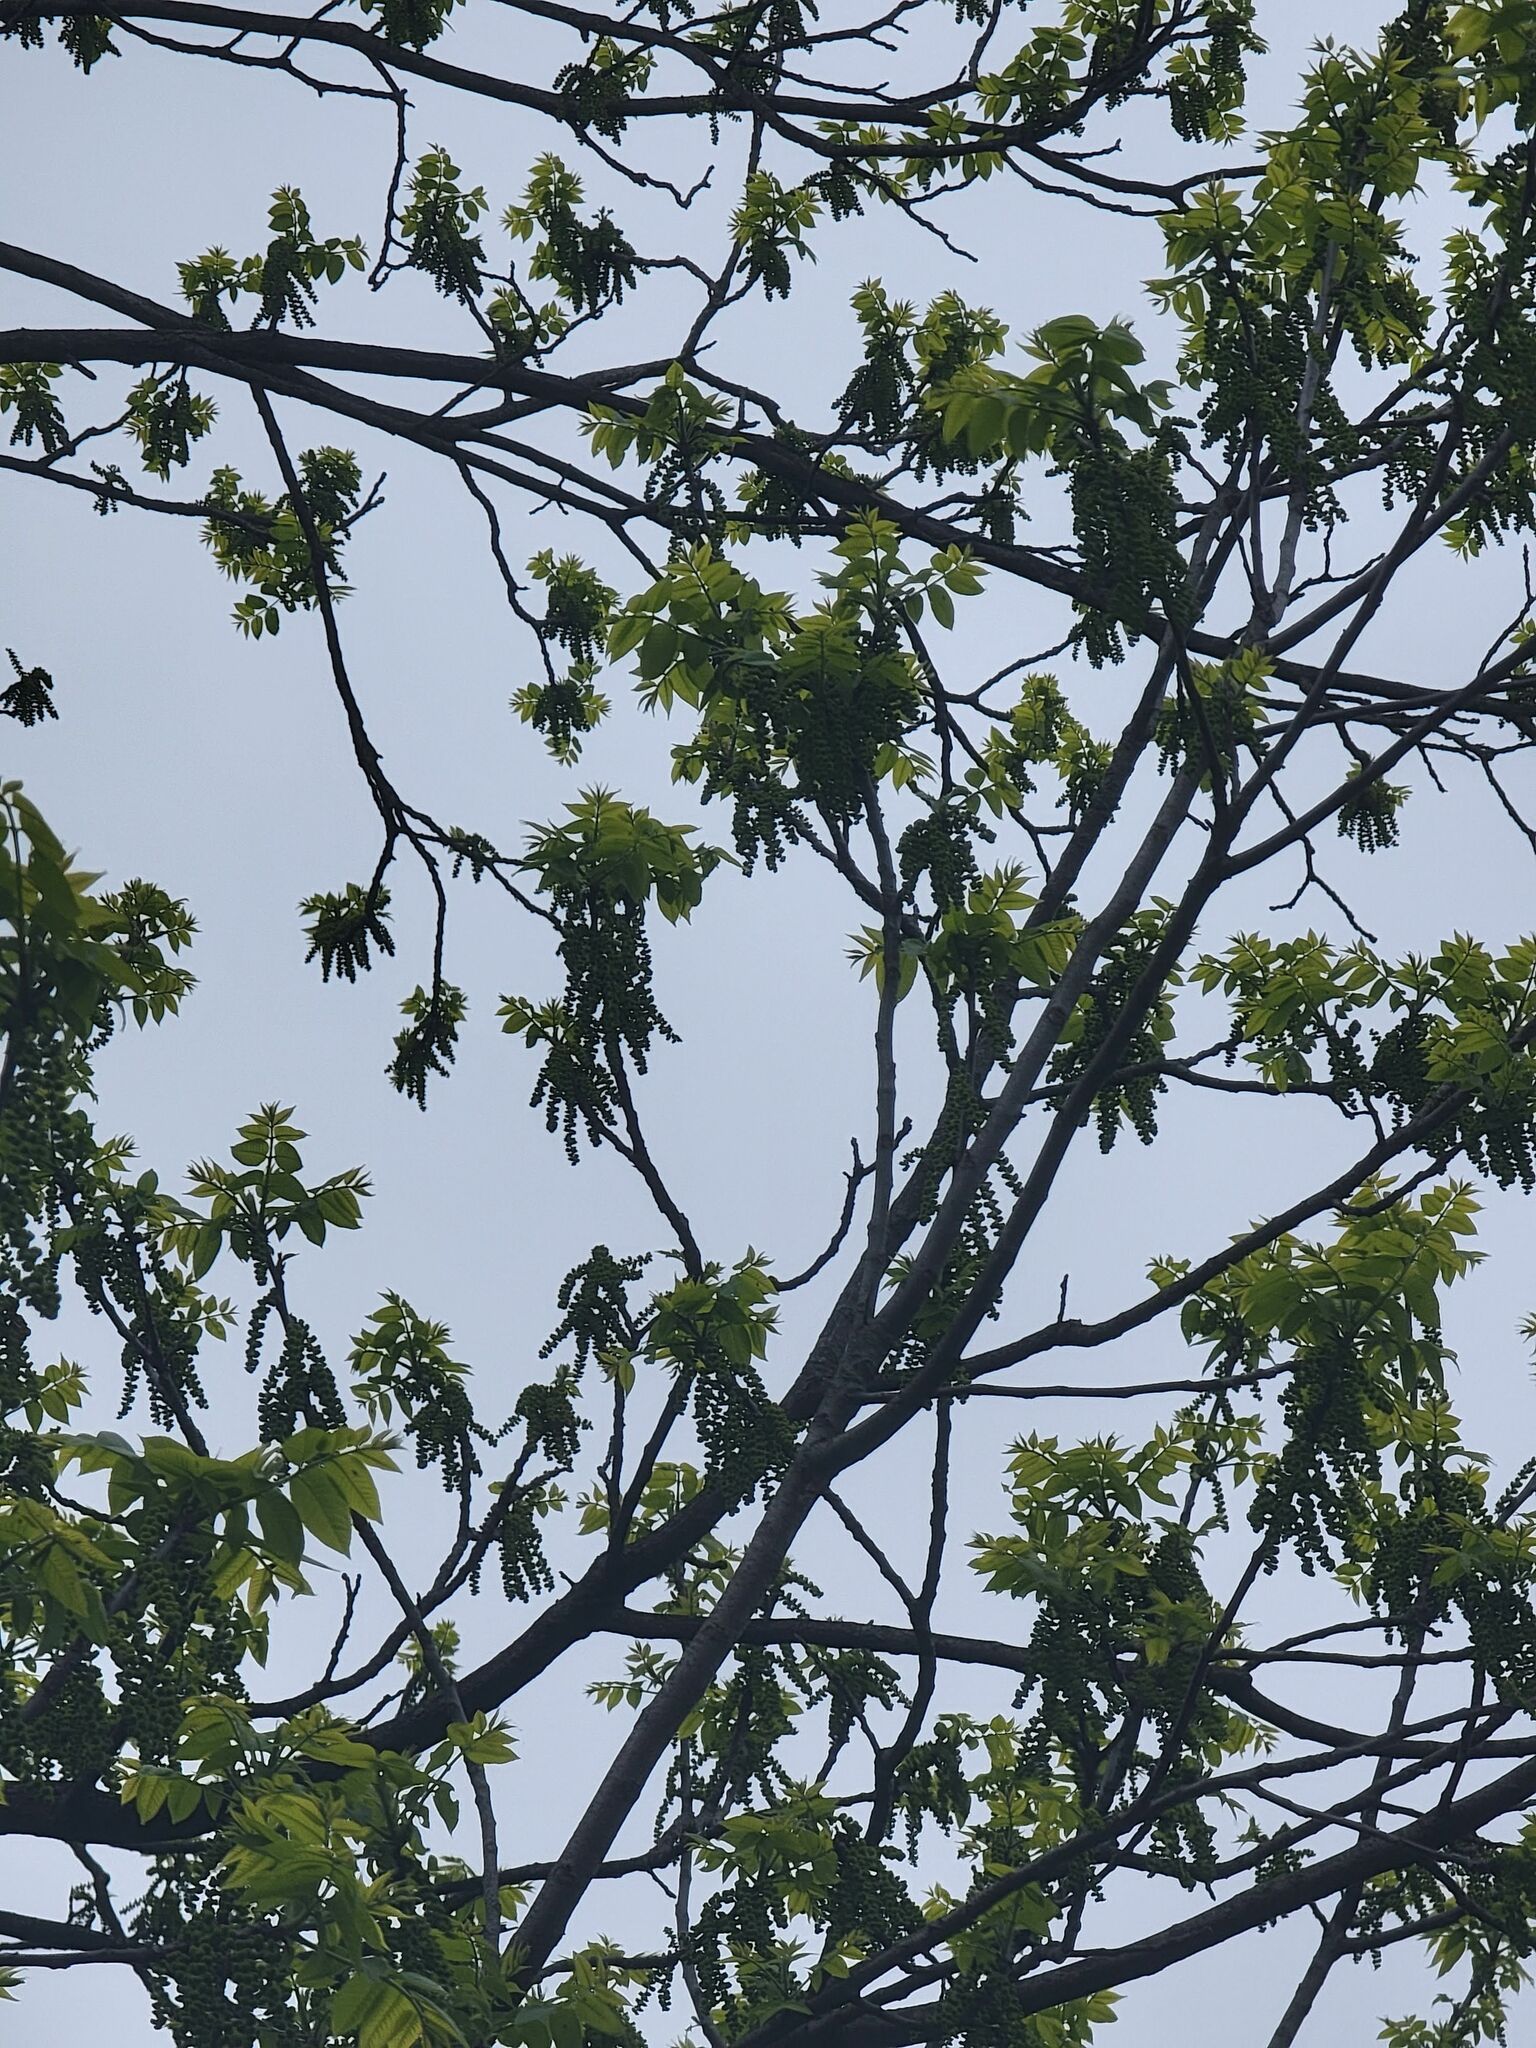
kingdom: Plantae
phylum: Tracheophyta
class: Magnoliopsida
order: Fagales
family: Juglandaceae
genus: Juglans
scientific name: Juglans nigra
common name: Black walnut
